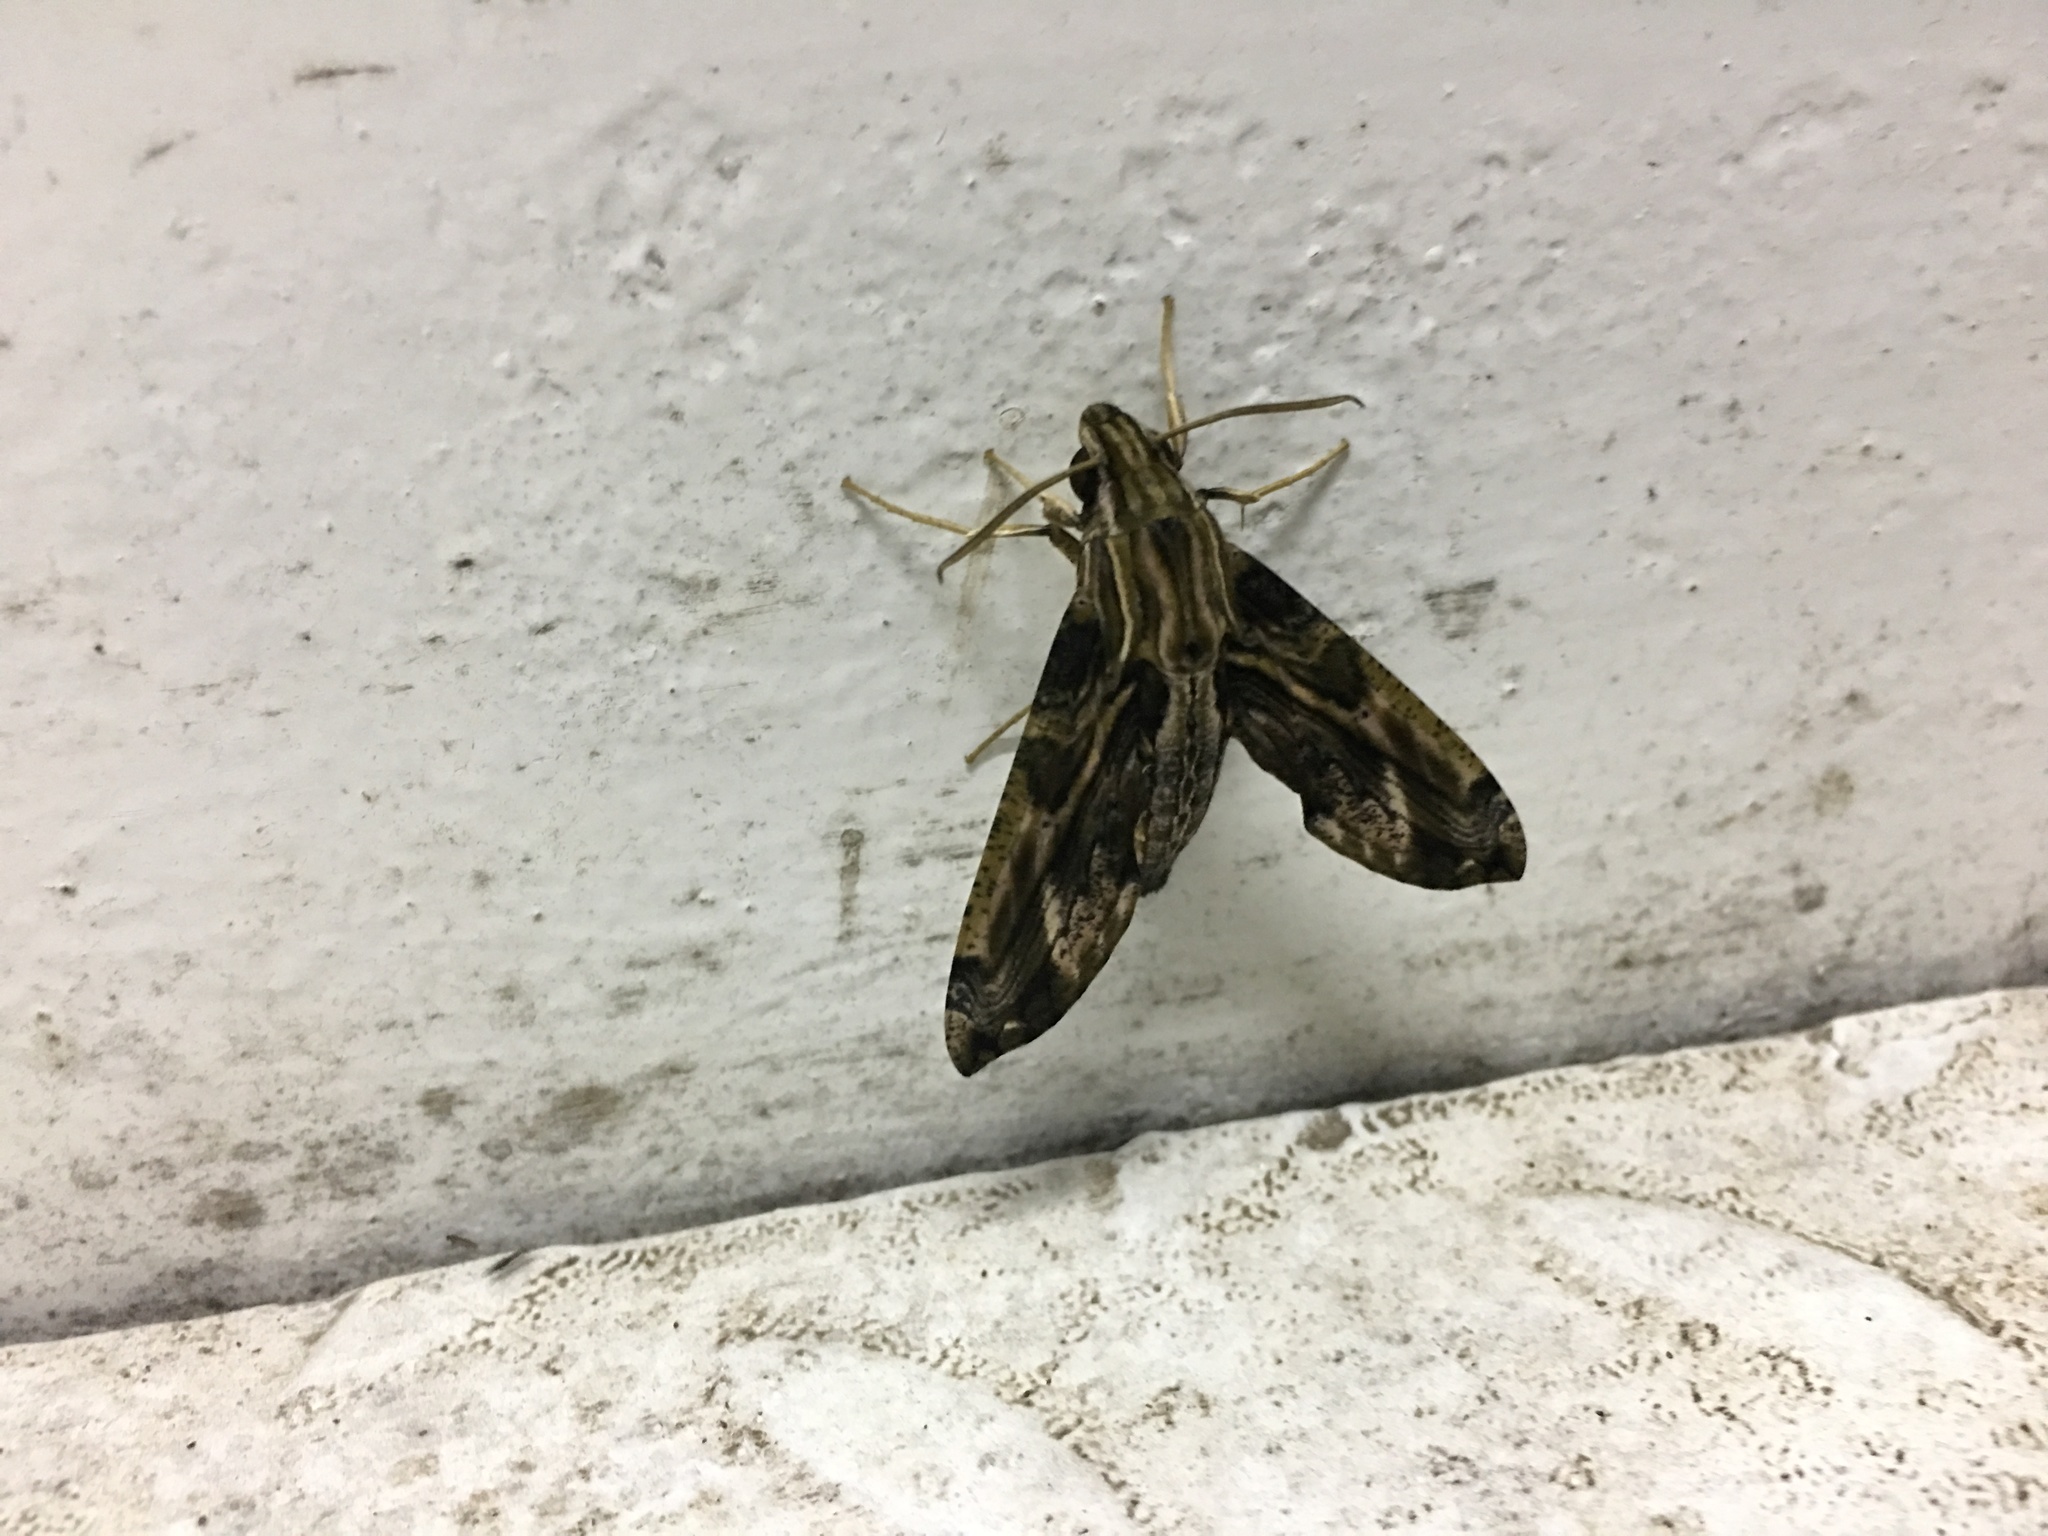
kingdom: Animalia
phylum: Arthropoda
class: Insecta
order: Lepidoptera
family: Sphingidae
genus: Eupanacra
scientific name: Eupanacra variolosa
